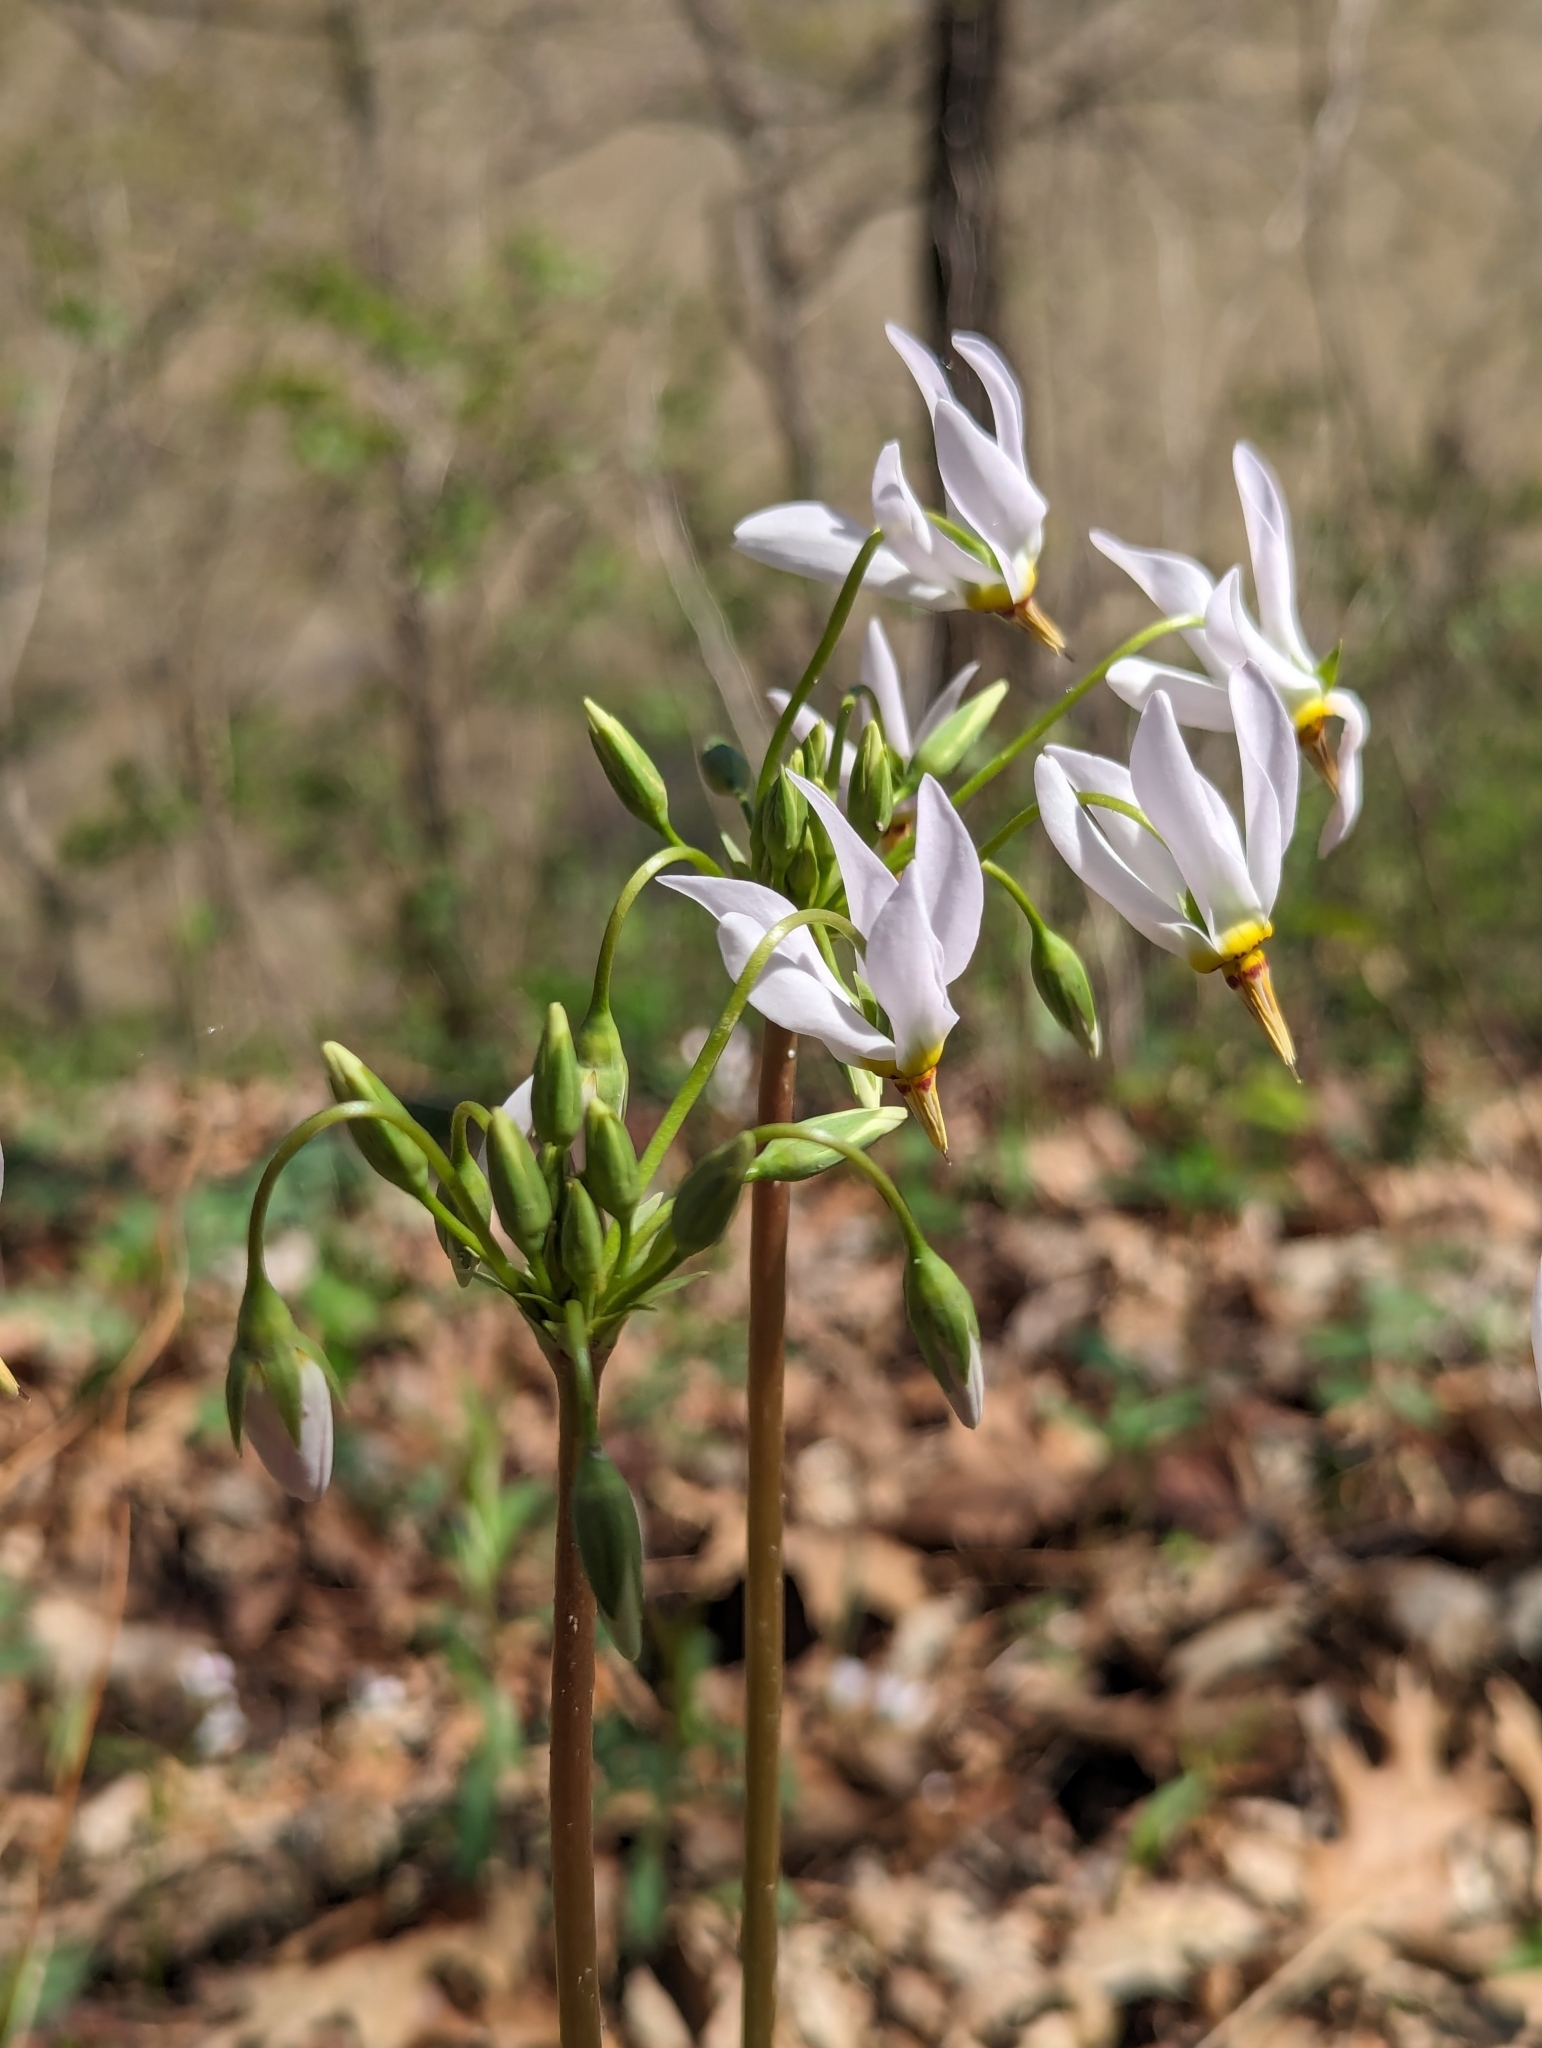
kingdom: Plantae
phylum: Tracheophyta
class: Magnoliopsida
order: Ericales
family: Primulaceae
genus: Dodecatheon
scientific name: Dodecatheon meadia
